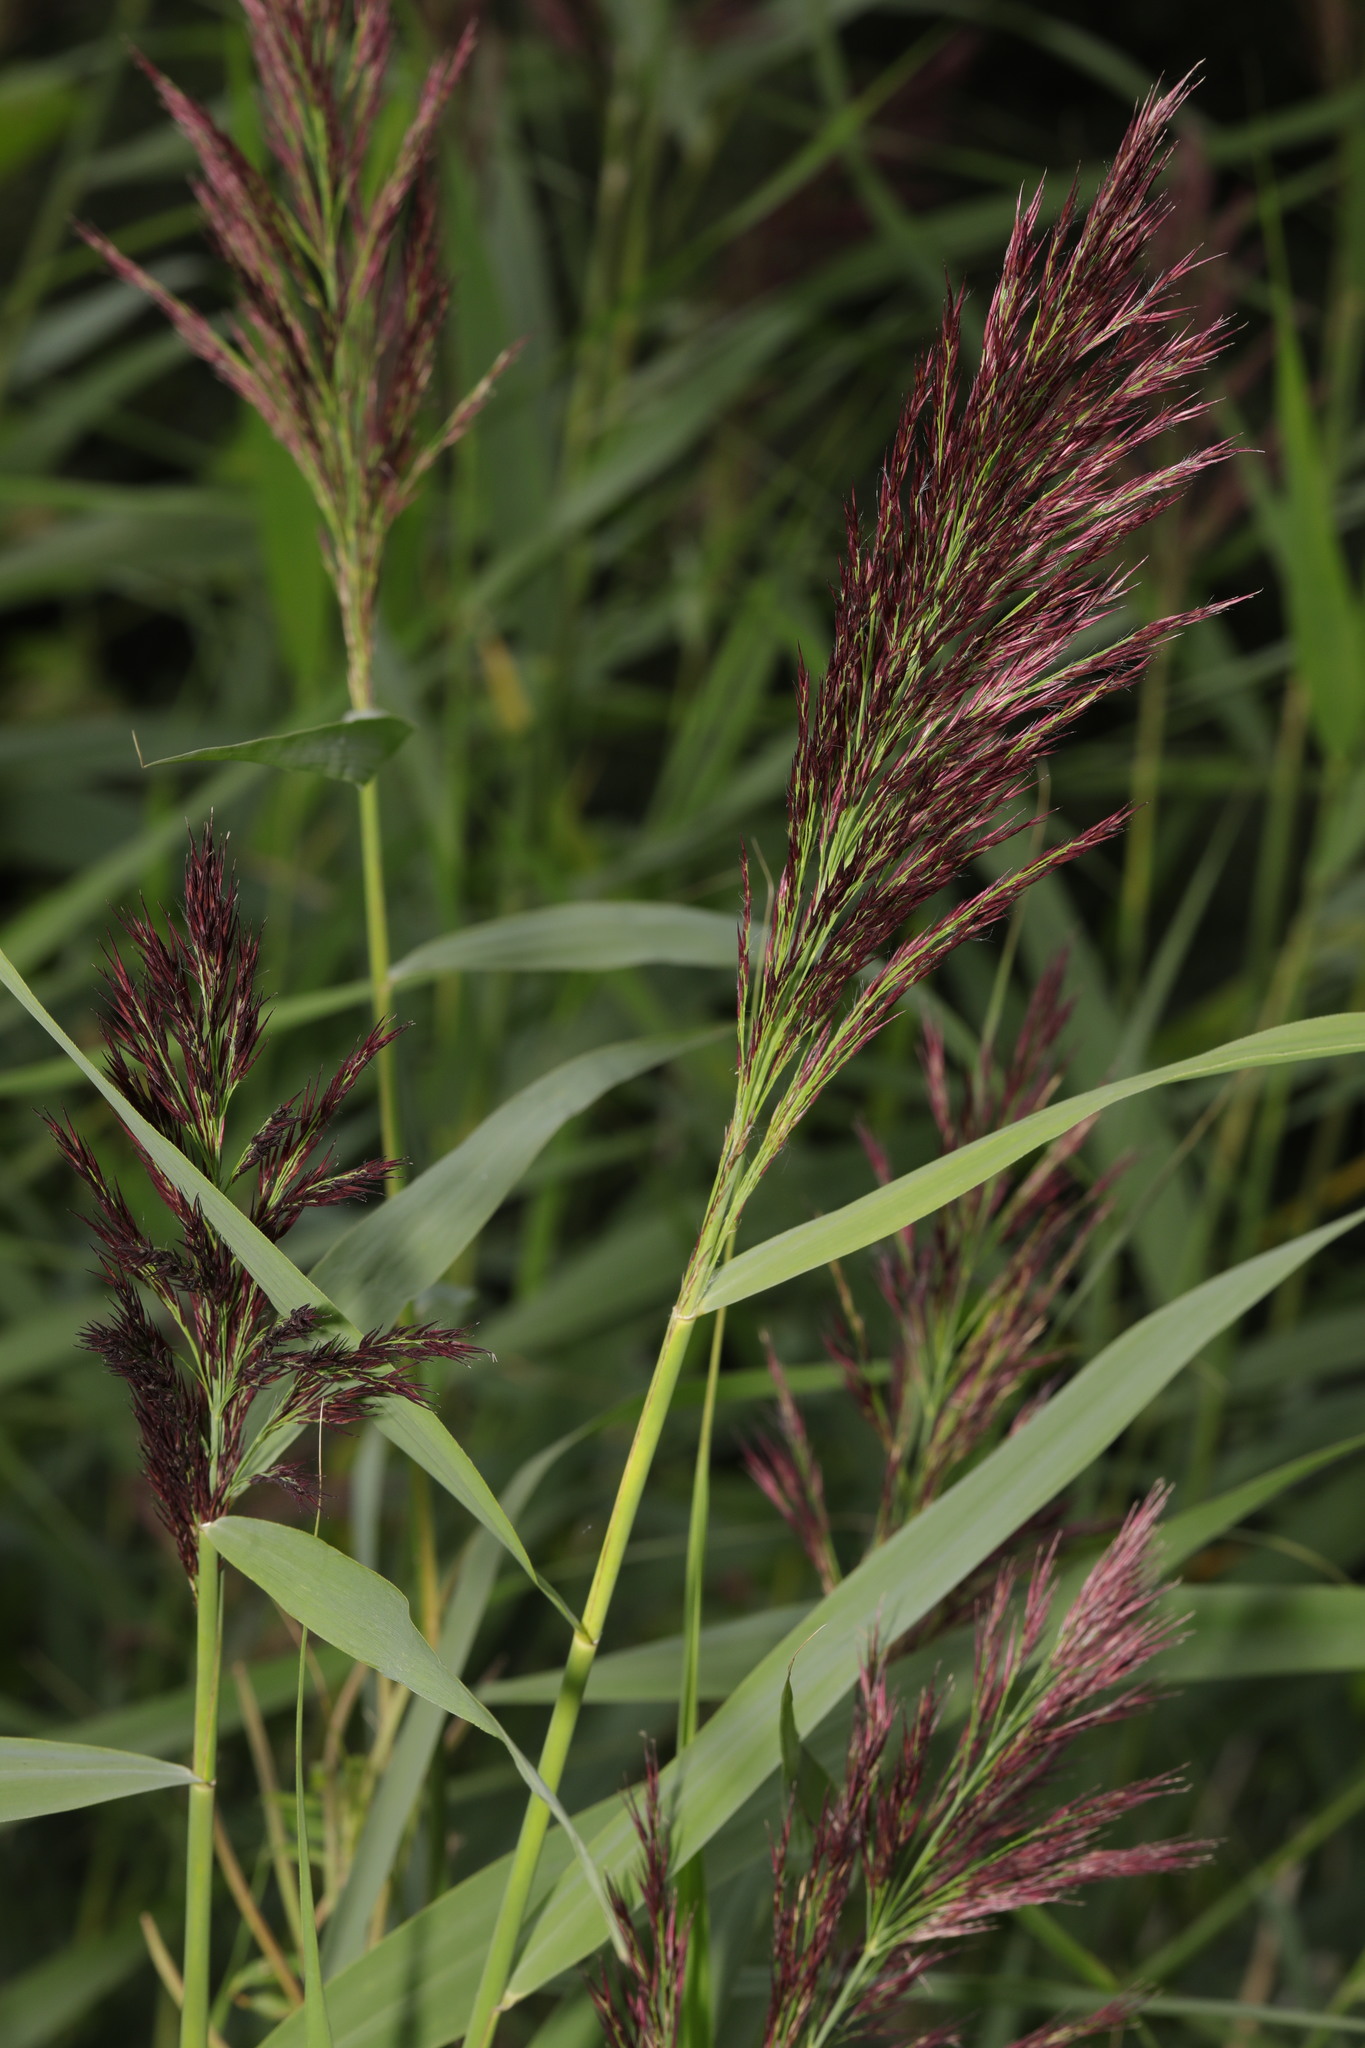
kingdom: Plantae
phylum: Tracheophyta
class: Liliopsida
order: Poales
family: Poaceae
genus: Phragmites
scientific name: Phragmites australis
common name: Common reed
